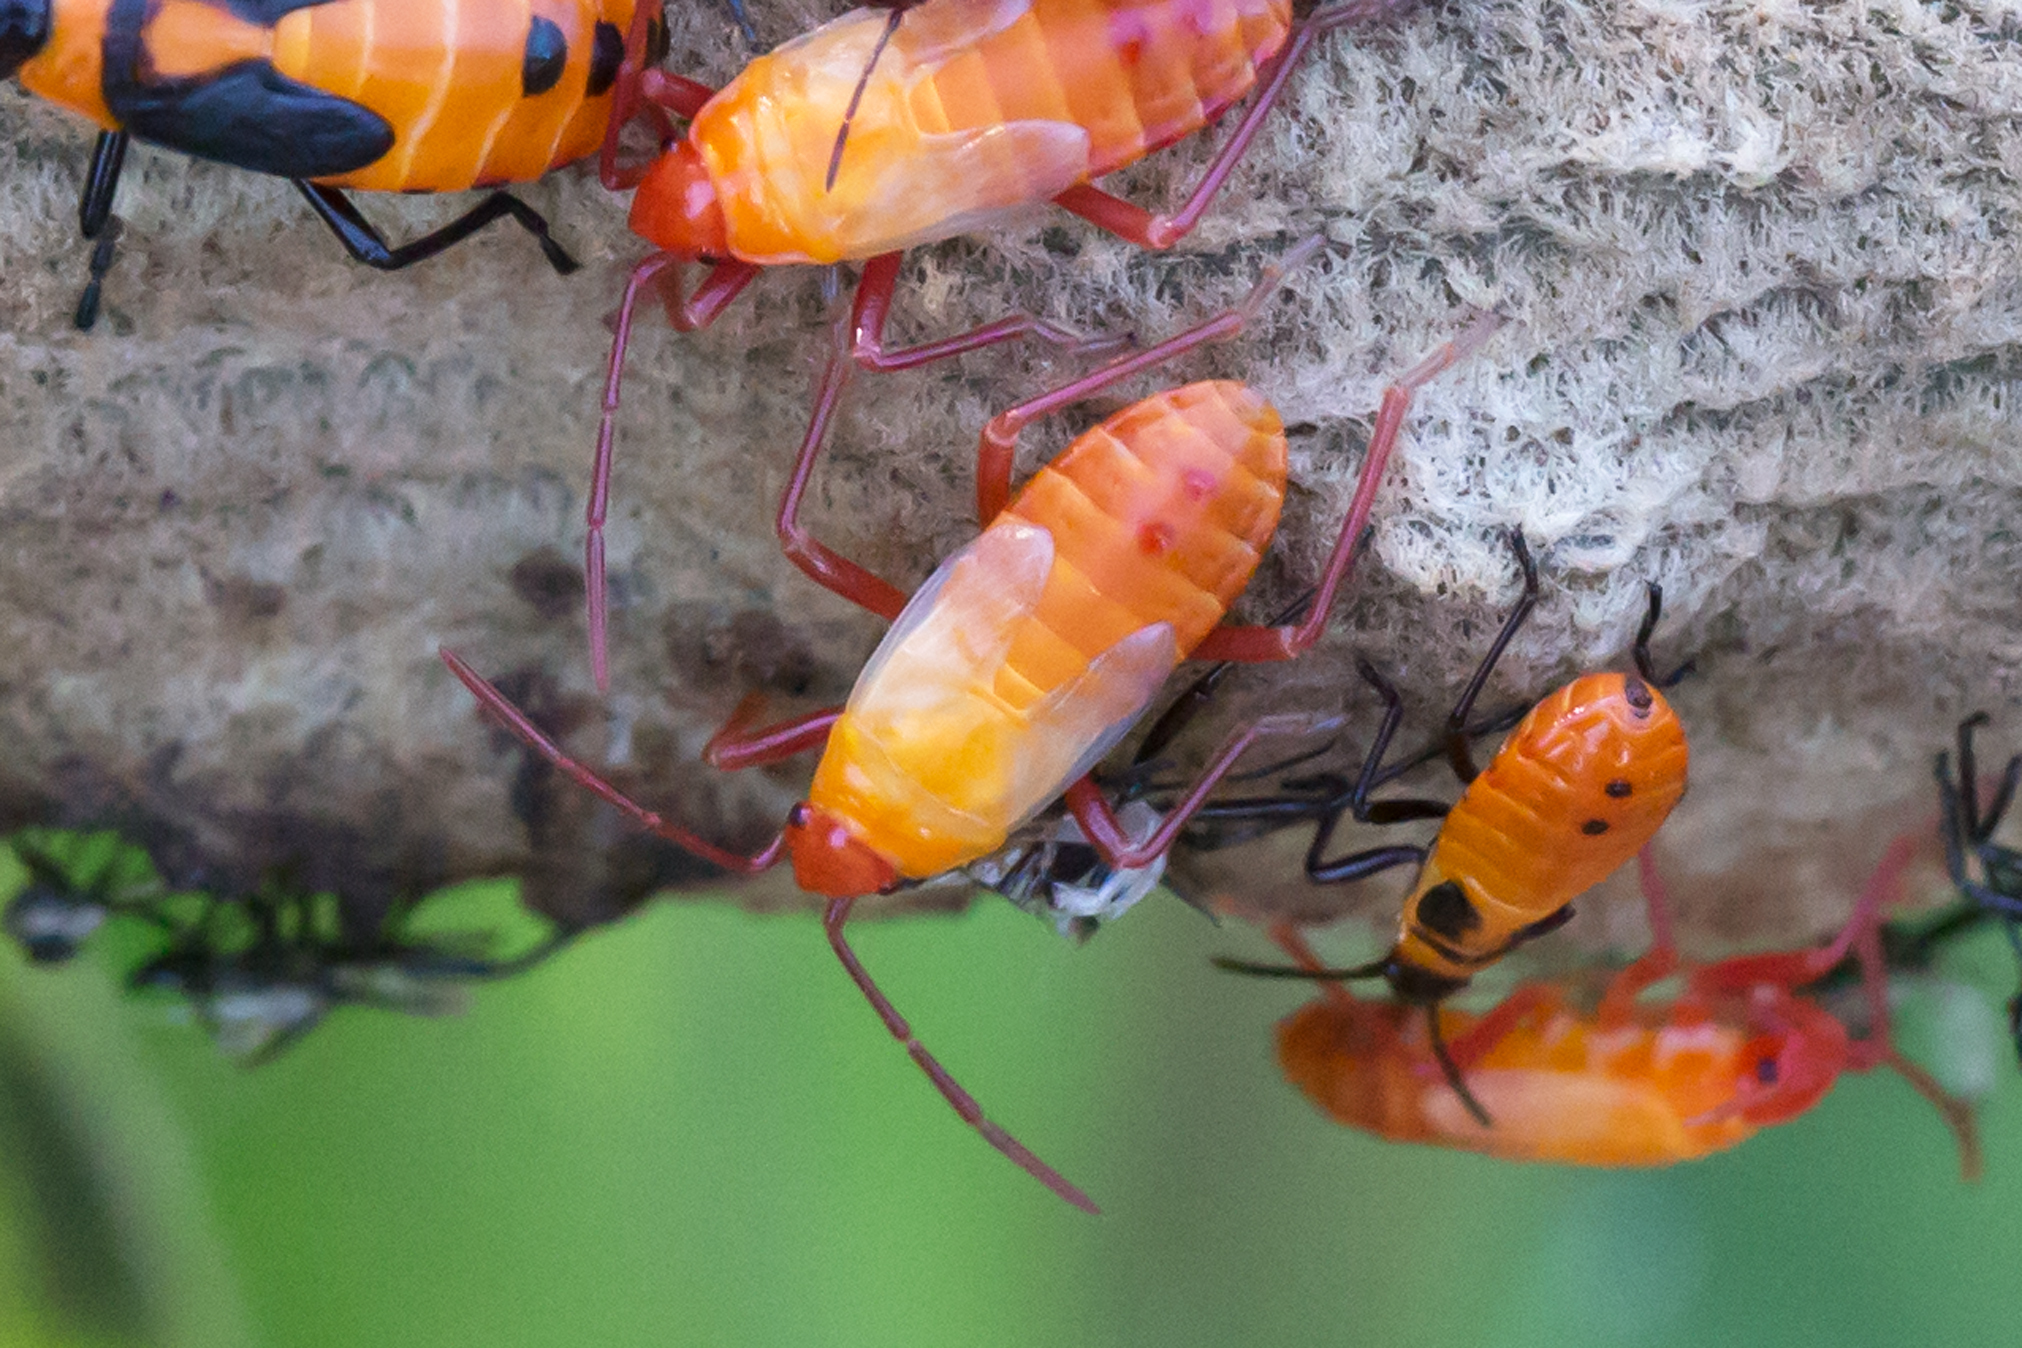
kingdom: Animalia
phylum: Arthropoda
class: Insecta
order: Hemiptera
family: Lygaeidae
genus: Oncopeltus
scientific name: Oncopeltus fasciatus
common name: Large milkweed bug
